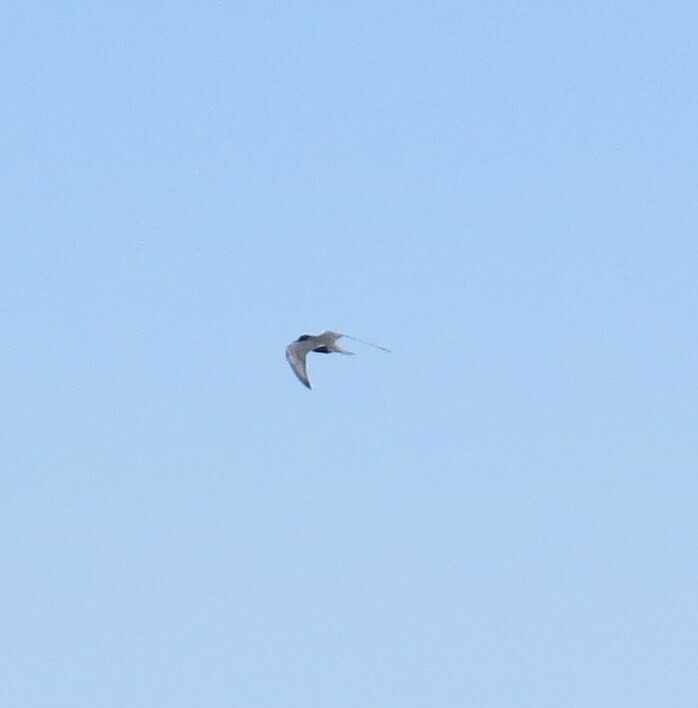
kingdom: Animalia
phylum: Chordata
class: Aves
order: Charadriiformes
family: Laridae
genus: Chlidonias
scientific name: Chlidonias niger
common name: Black tern
